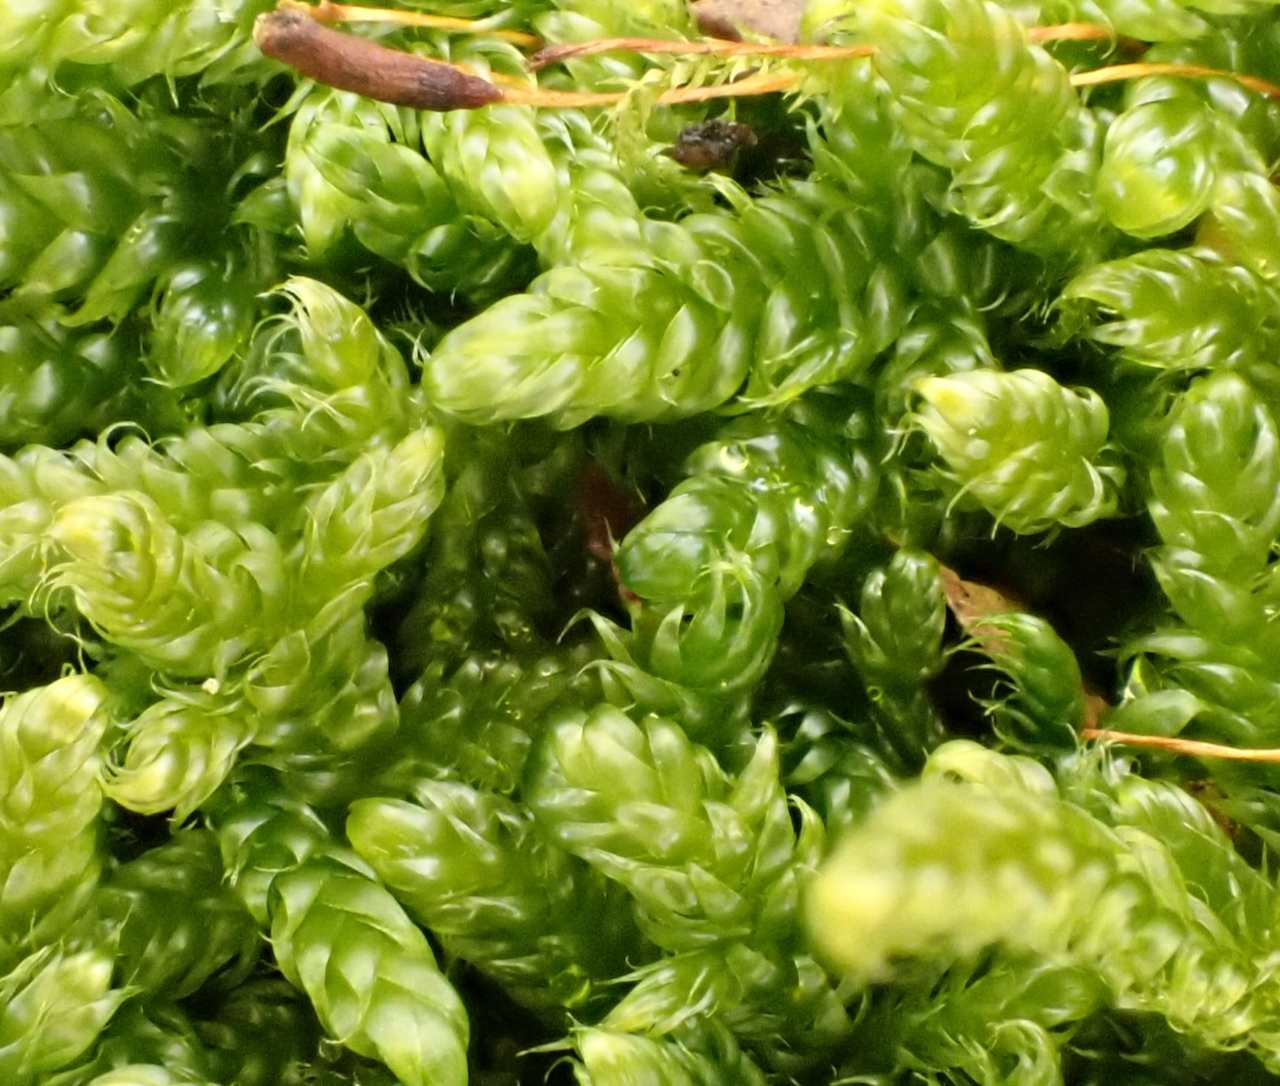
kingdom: Plantae
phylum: Bryophyta
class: Bryopsida
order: Hypnales
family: Hypnaceae
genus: Hypnum
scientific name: Hypnum cupressiforme
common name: Cypress-leaved plait-moss
